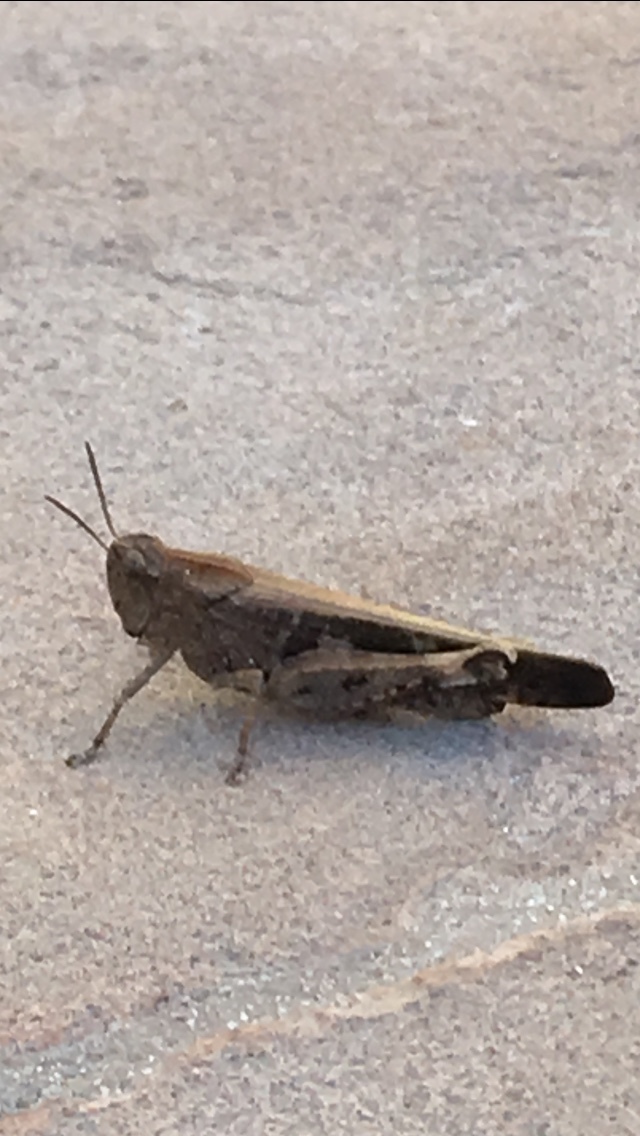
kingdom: Animalia
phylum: Arthropoda
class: Insecta
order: Orthoptera
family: Acrididae
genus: Aiolopus
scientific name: Aiolopus strepens
